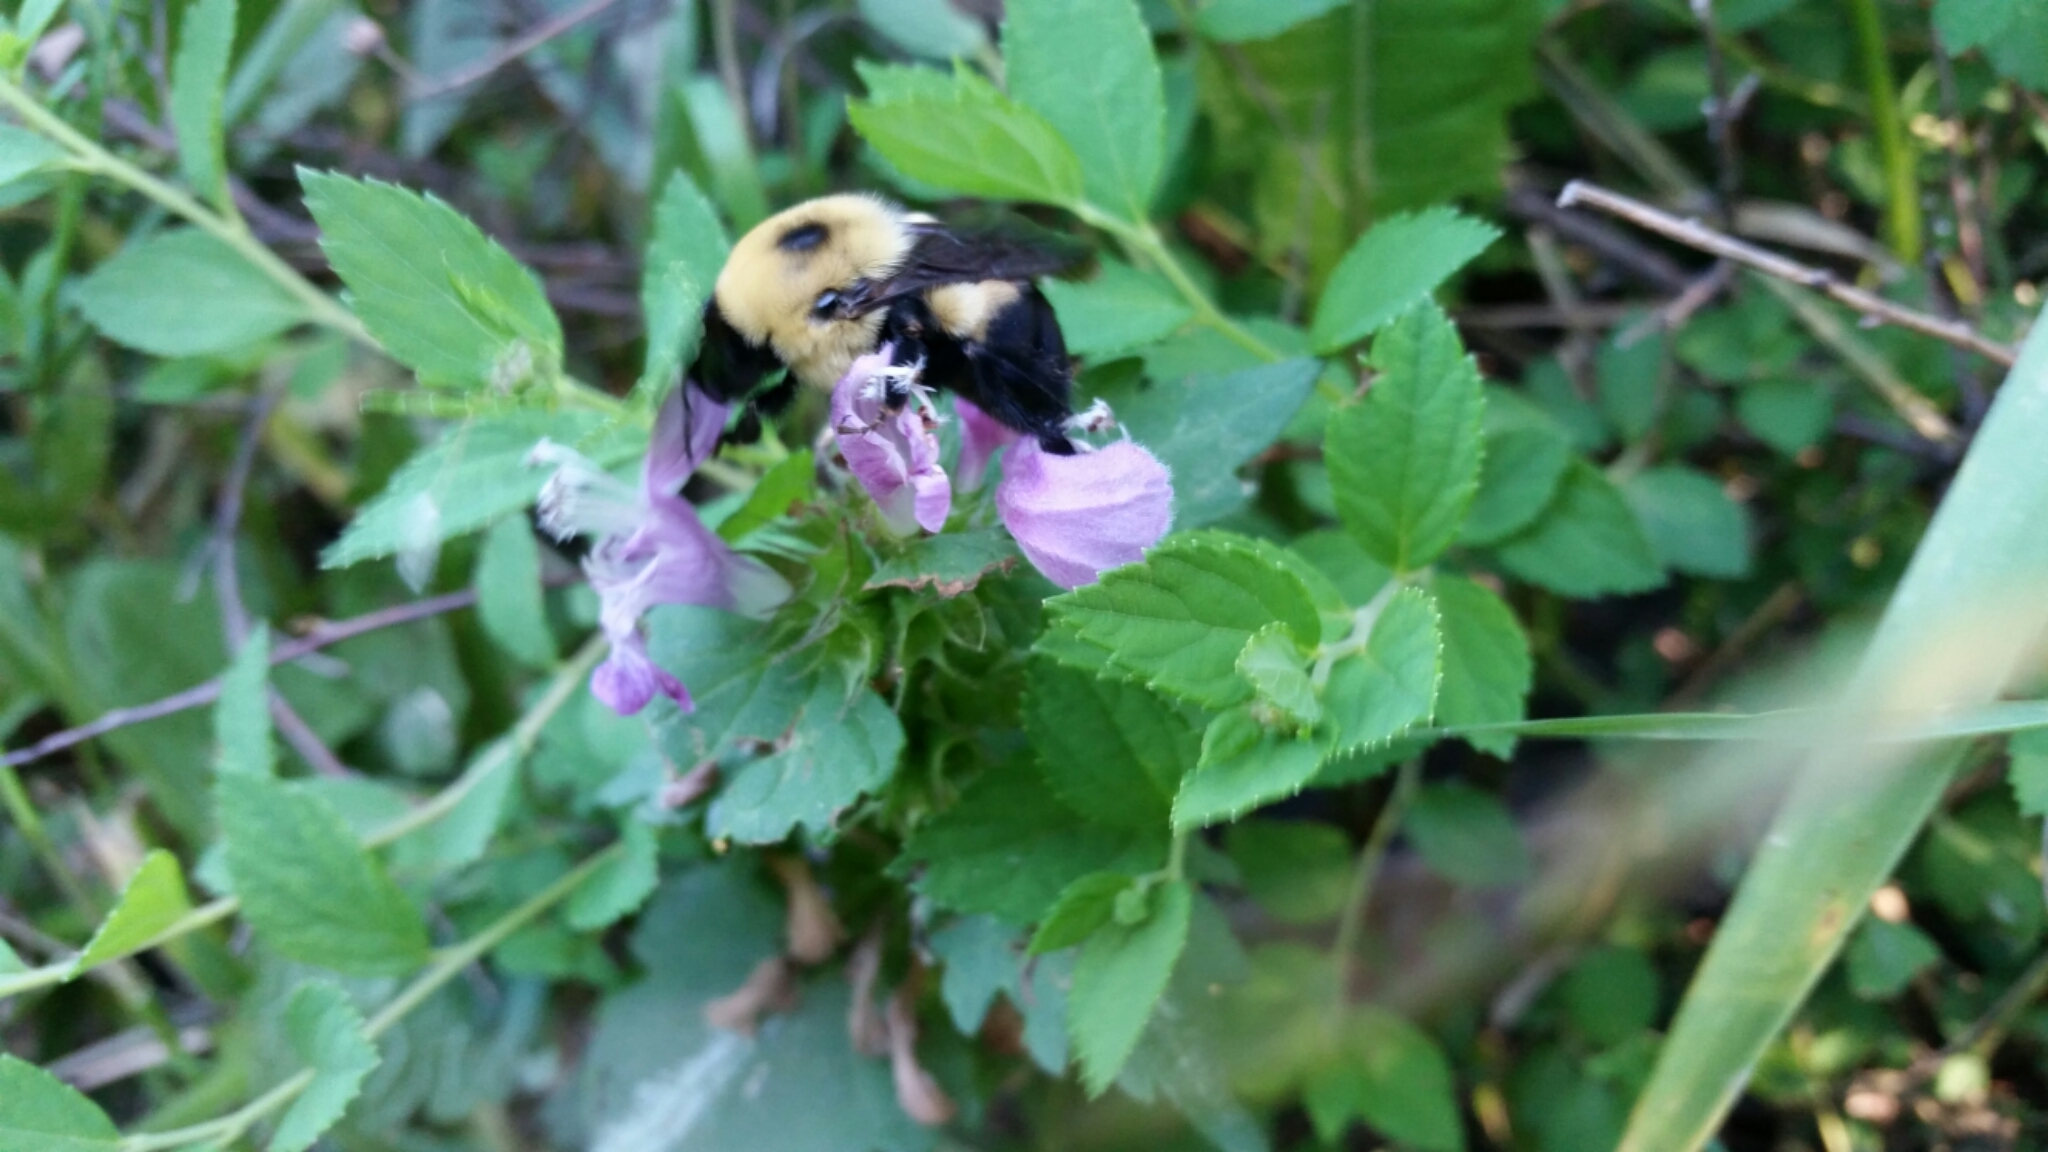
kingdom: Animalia
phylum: Arthropoda
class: Insecta
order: Hymenoptera
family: Apidae
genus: Bombus
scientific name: Bombus griseocollis
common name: Brown-belted bumble bee
